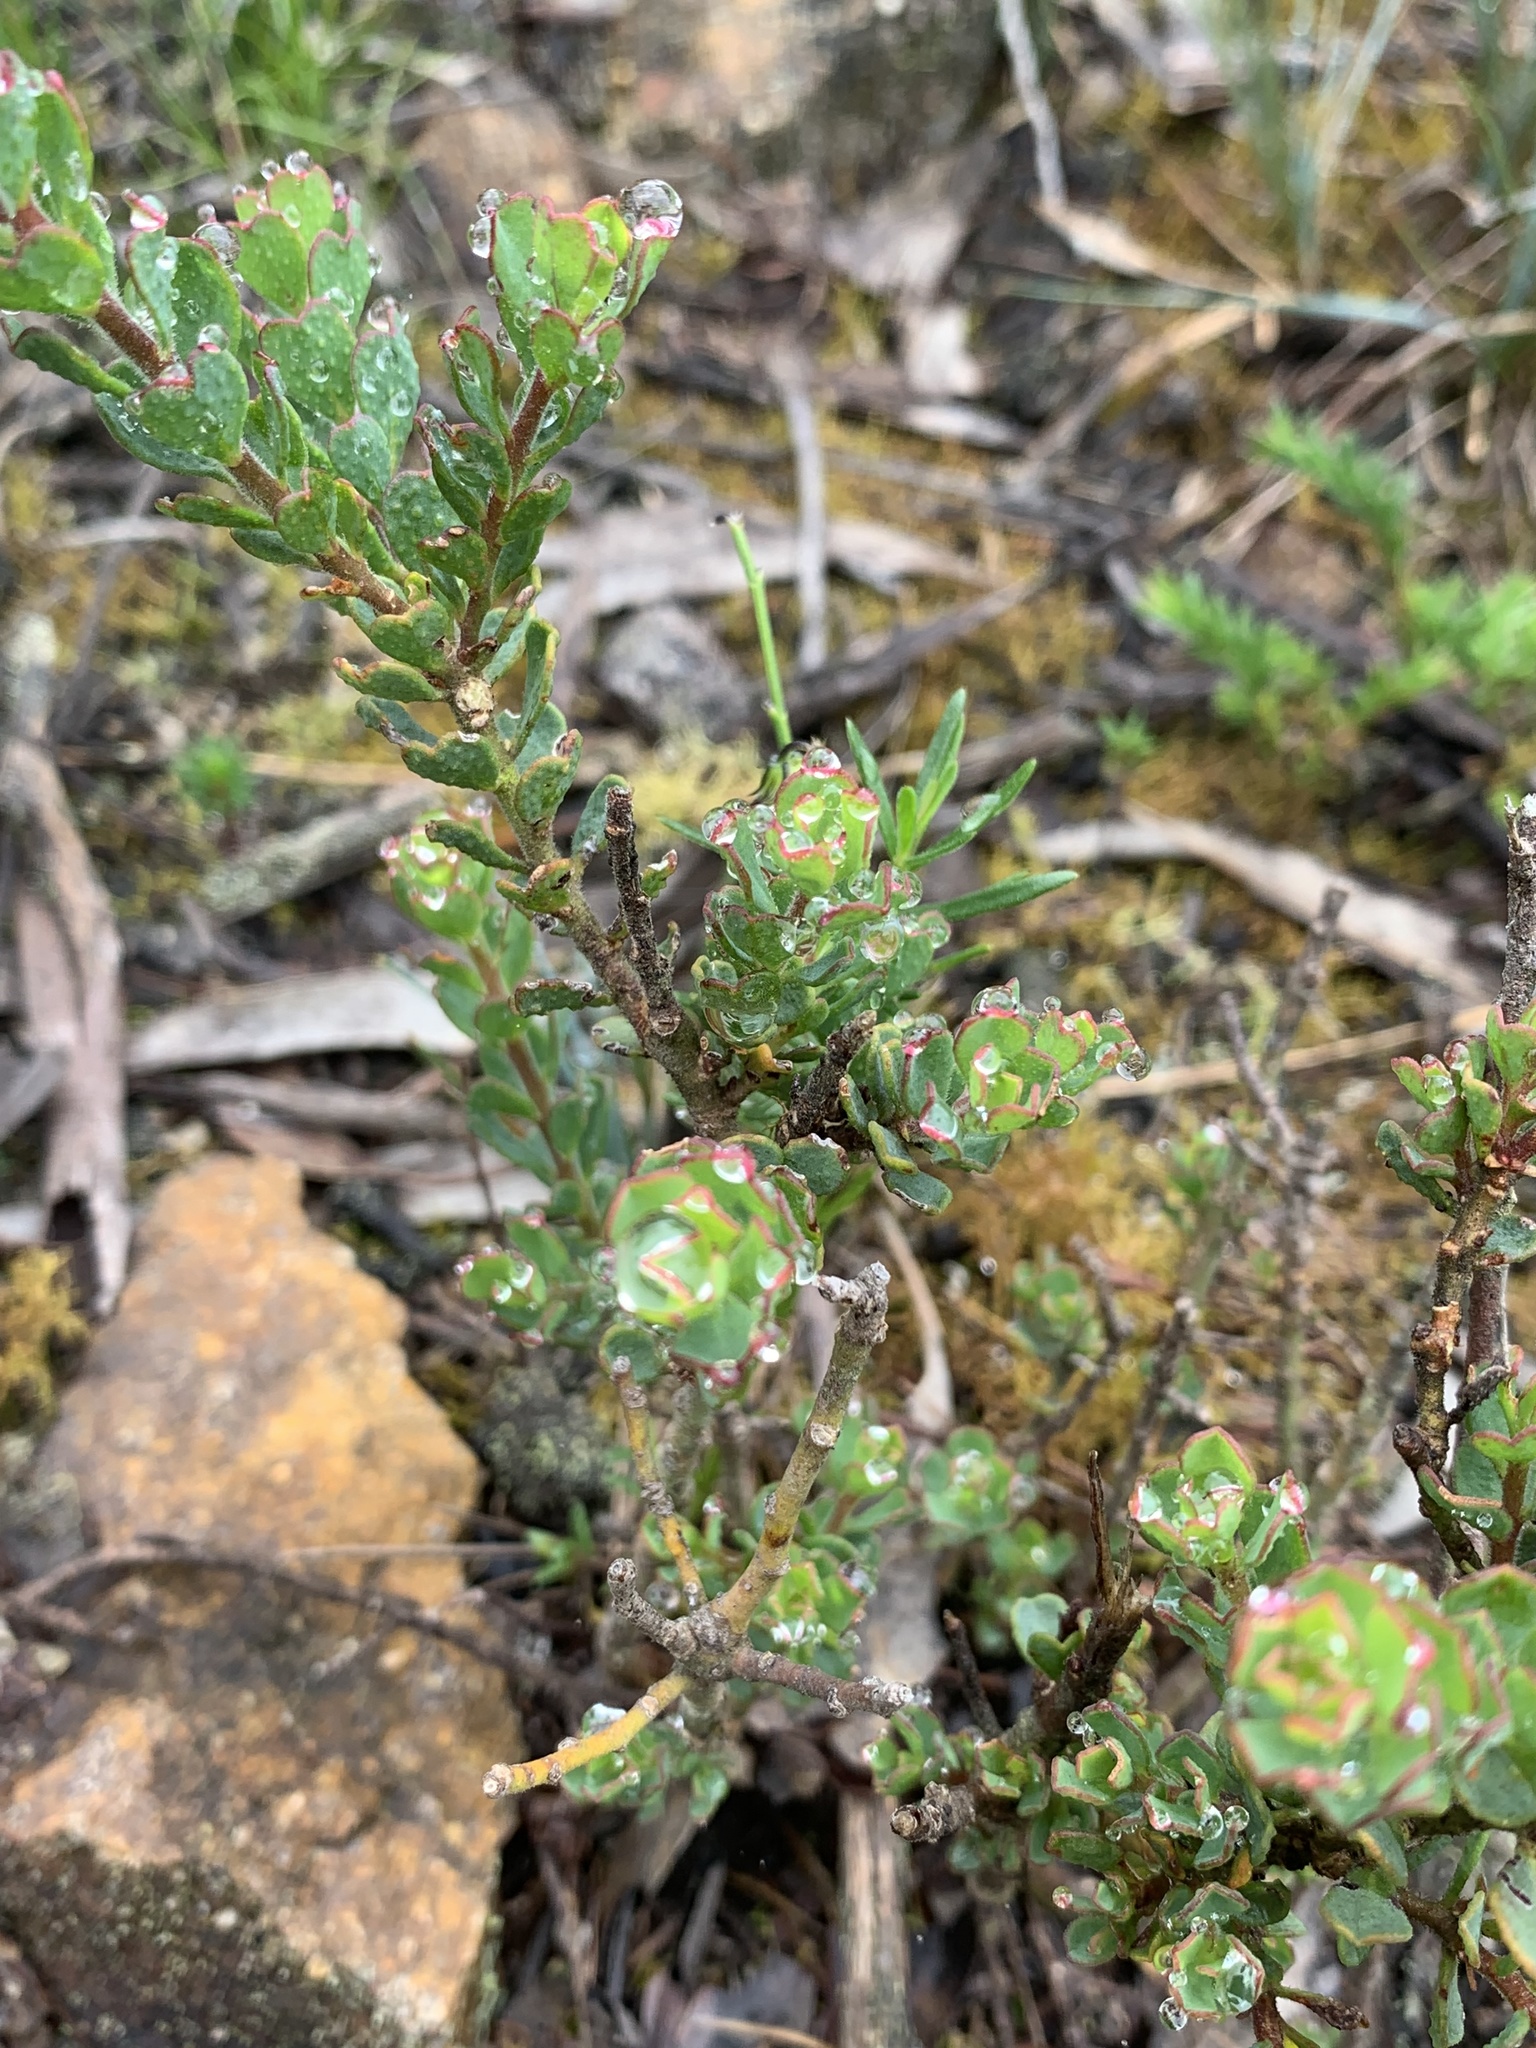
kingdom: Plantae
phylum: Tracheophyta
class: Magnoliopsida
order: Sapindales
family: Rutaceae
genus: Philotheca
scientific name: Philotheca obovalis
